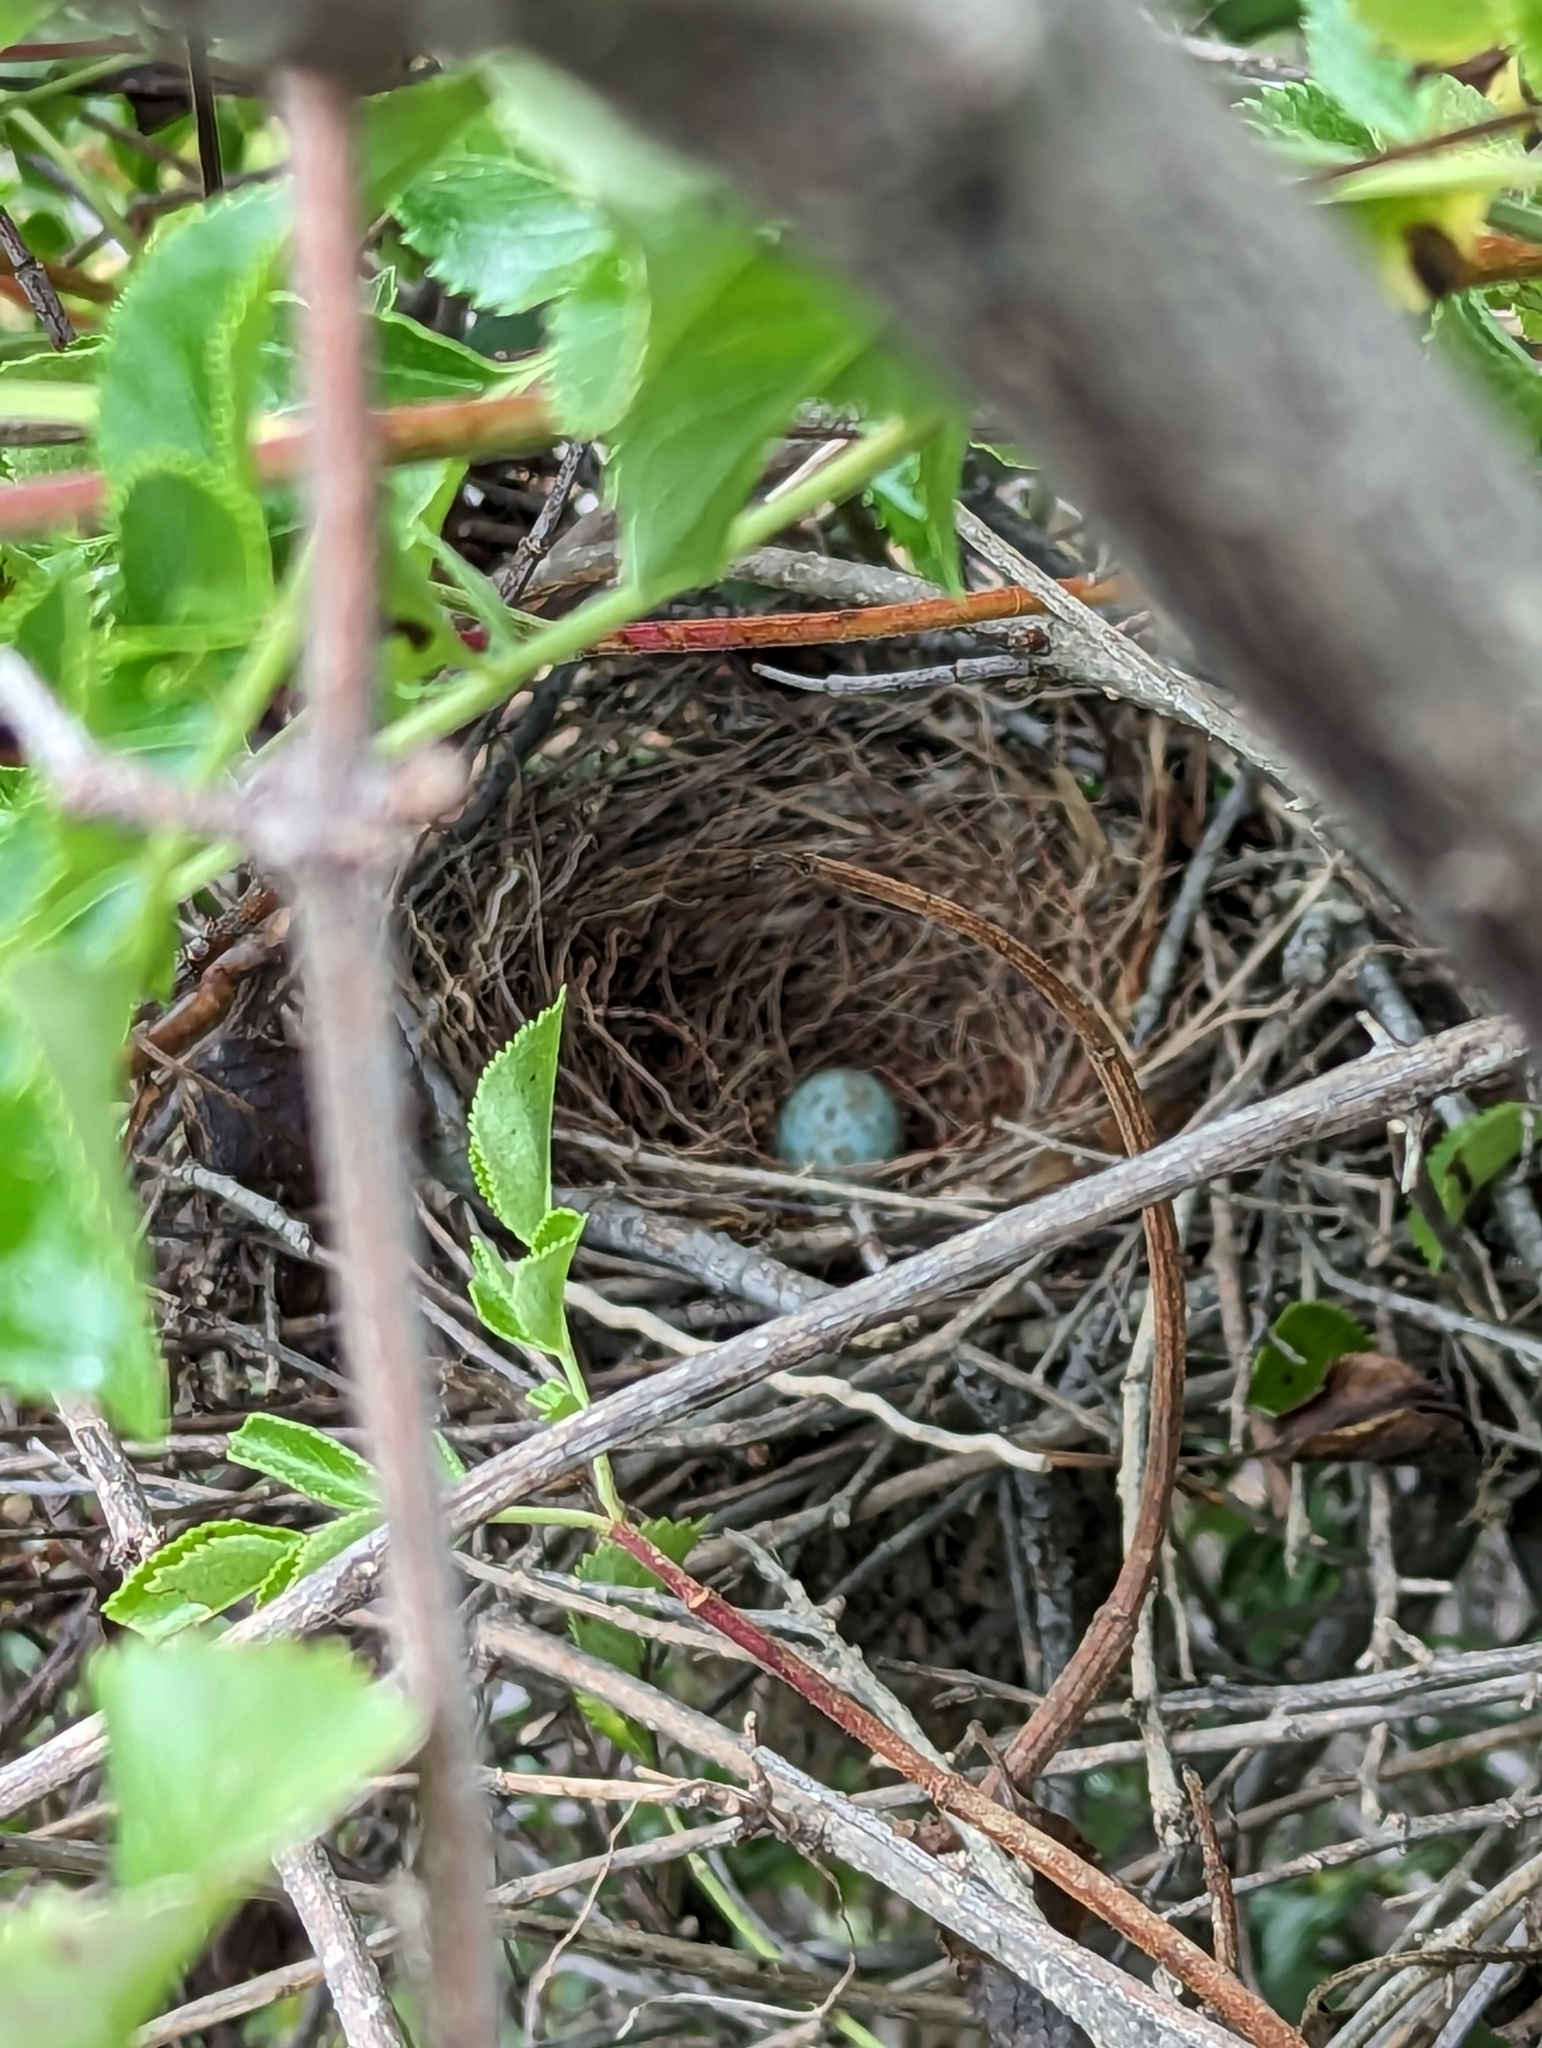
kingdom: Animalia
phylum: Chordata
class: Aves
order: Passeriformes
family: Mimidae
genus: Mimus
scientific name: Mimus polyglottos
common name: Northern mockingbird
